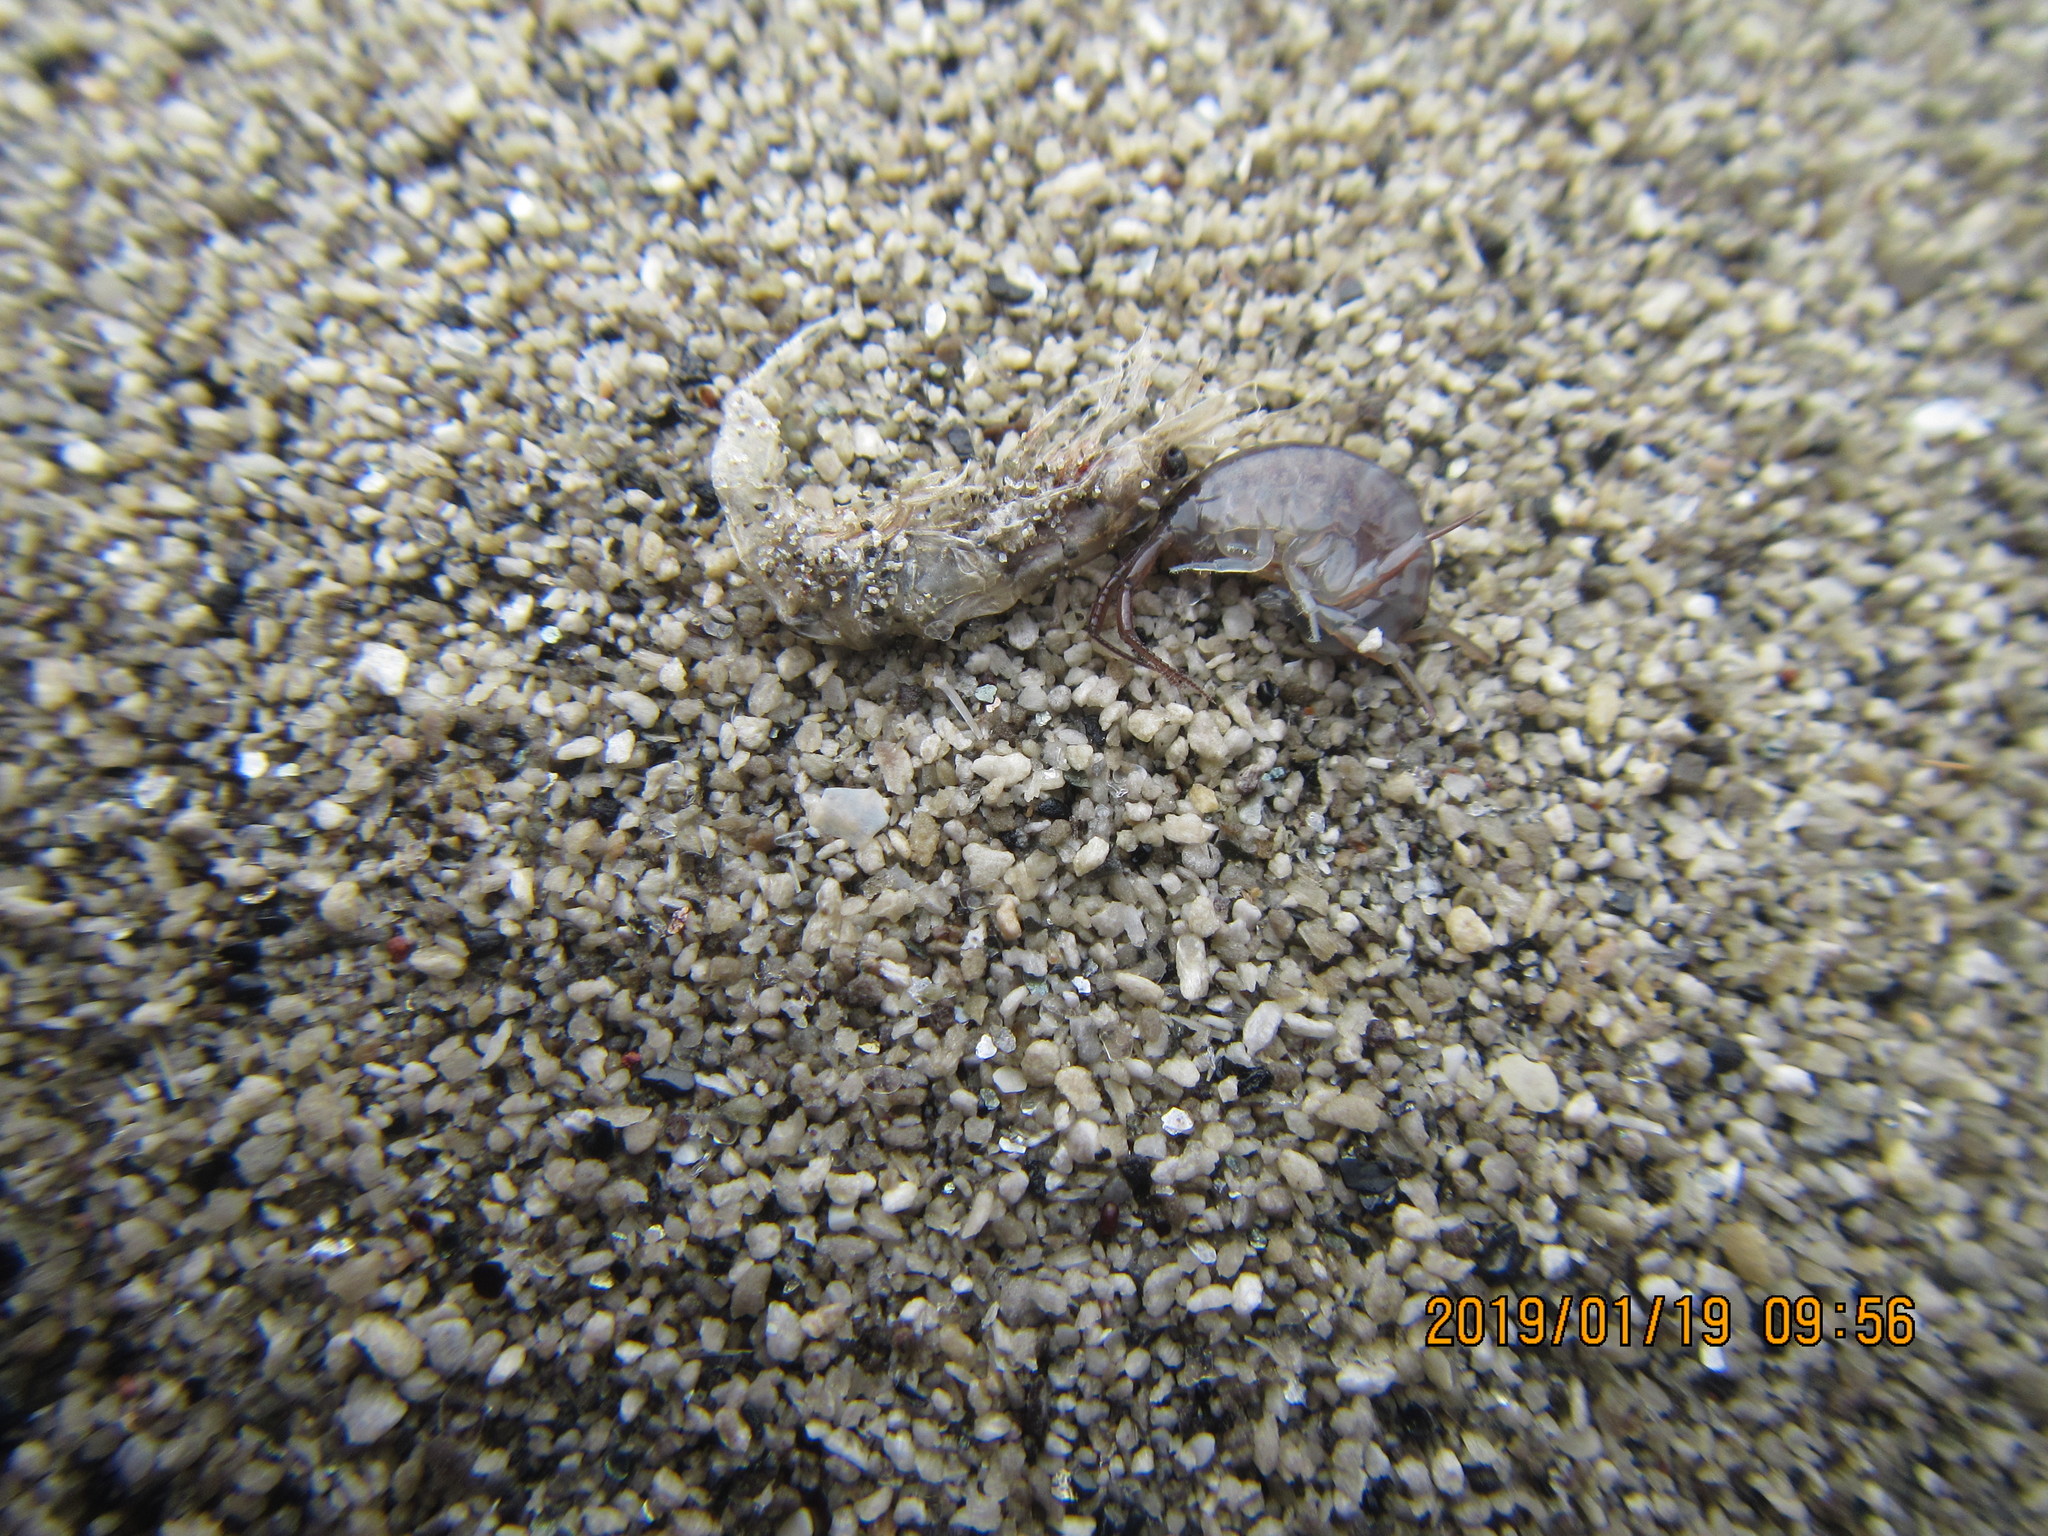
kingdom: Animalia
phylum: Arthropoda
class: Malacostraca
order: Amphipoda
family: Talitridae
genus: Bellorchestia
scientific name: Bellorchestia quoyana
